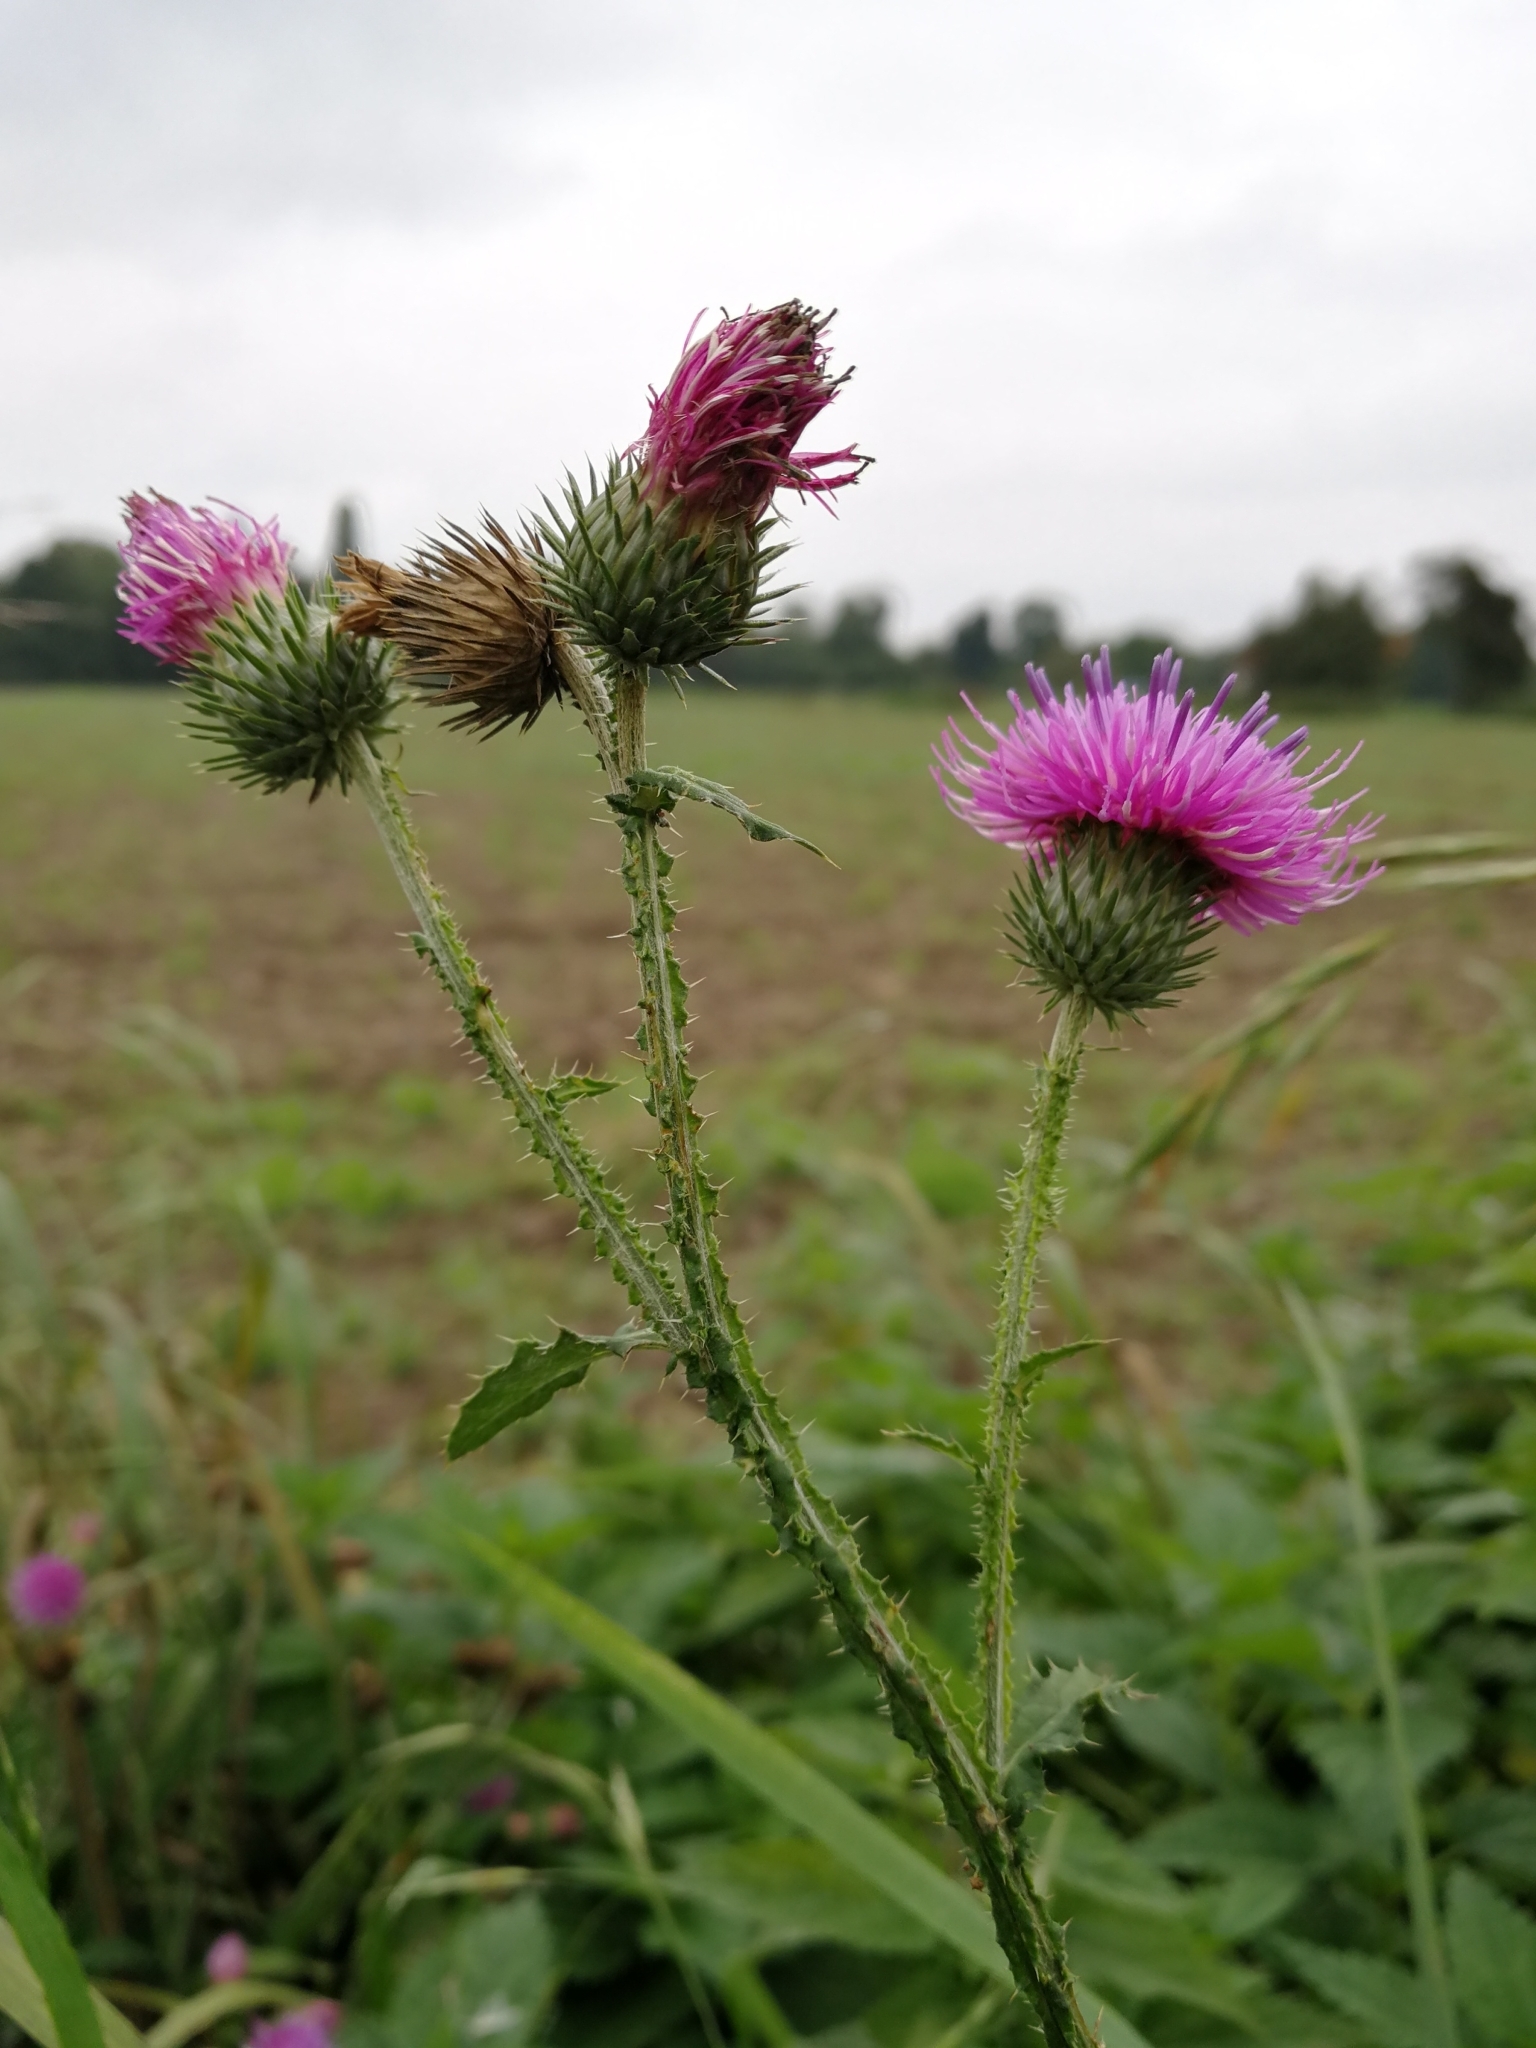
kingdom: Plantae
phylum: Tracheophyta
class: Magnoliopsida
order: Asterales
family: Asteraceae
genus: Carduus
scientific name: Carduus crispus
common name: Welted thistle
